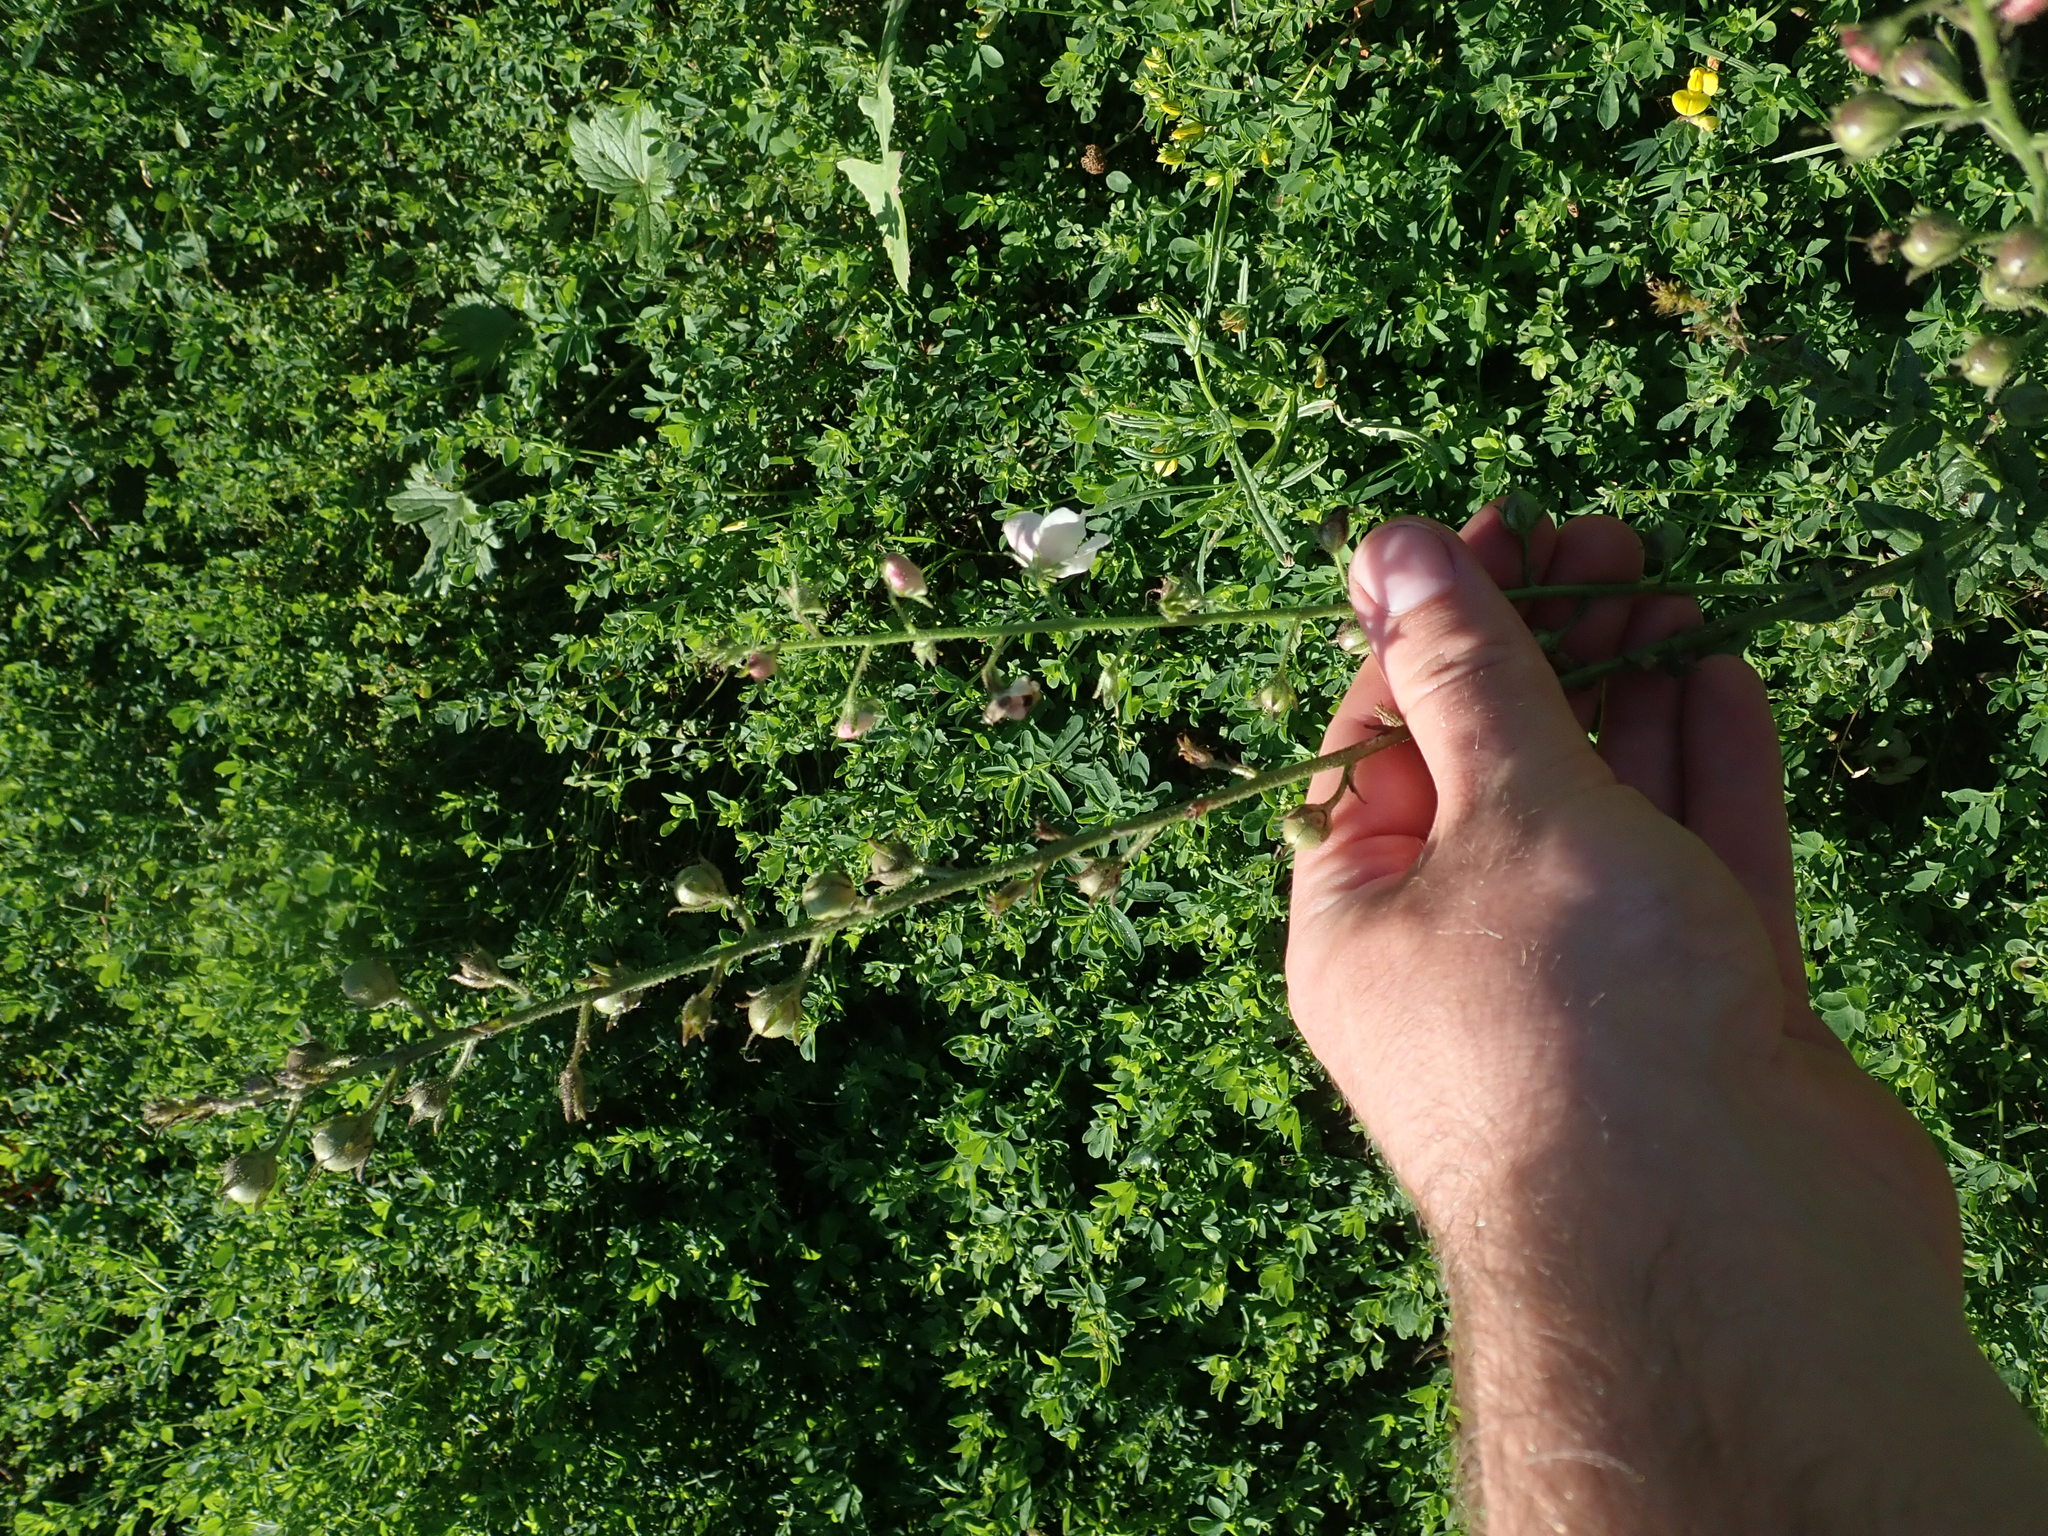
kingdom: Plantae
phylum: Tracheophyta
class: Magnoliopsida
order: Lamiales
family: Scrophulariaceae
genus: Verbascum
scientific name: Verbascum blattaria
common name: Moth mullein
